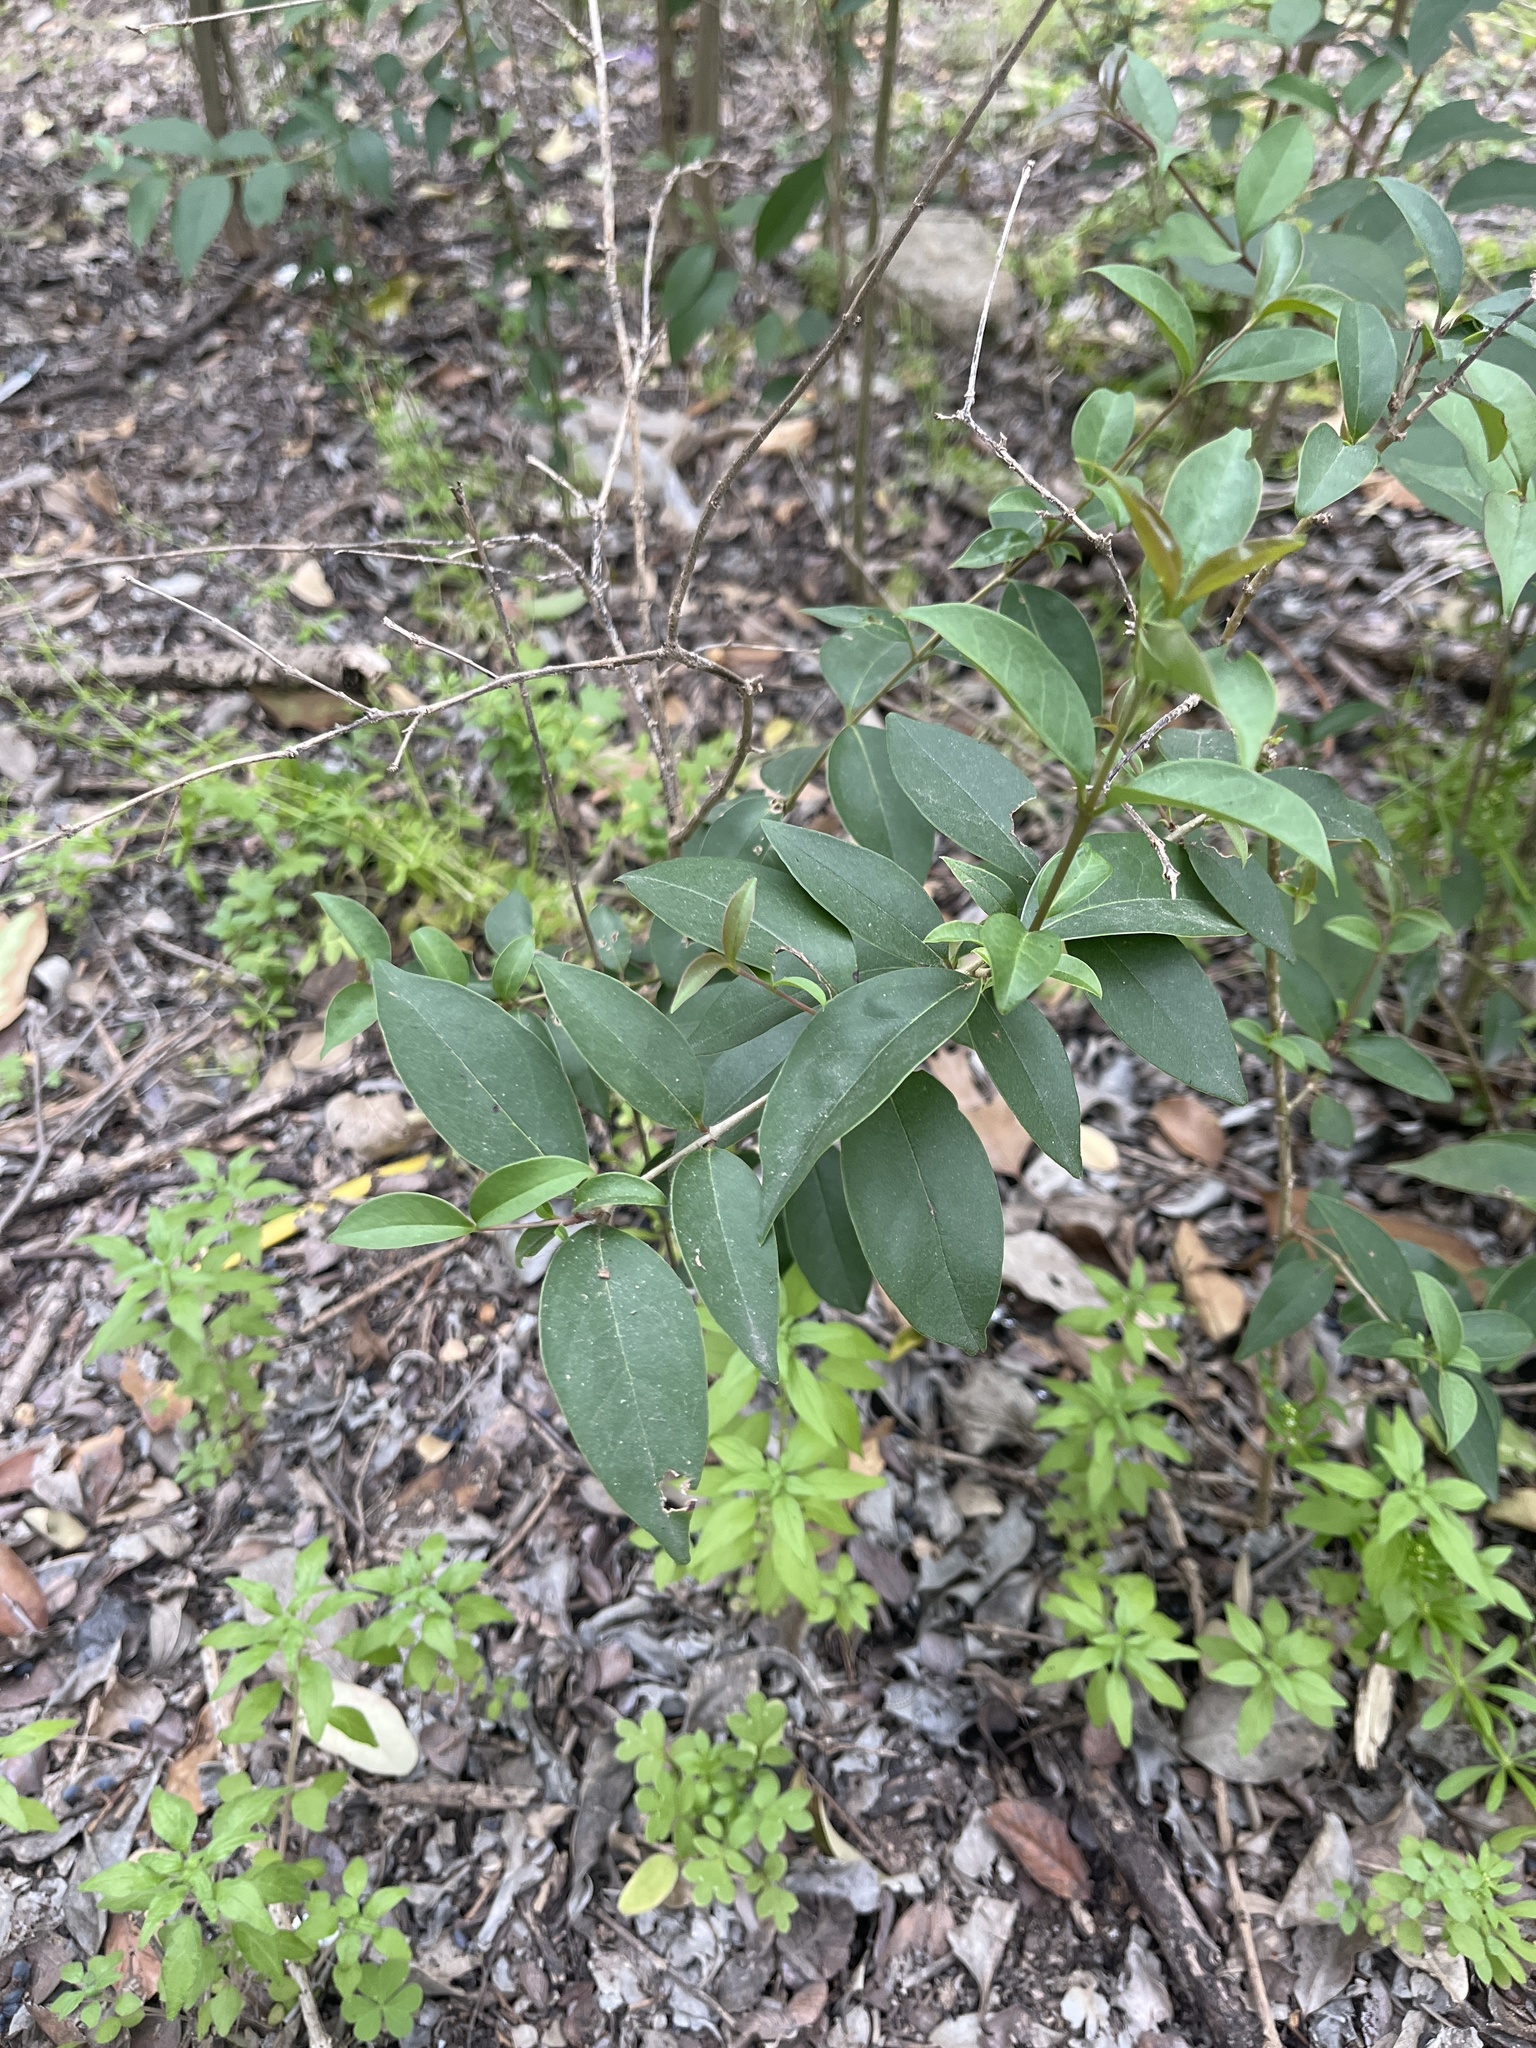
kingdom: Plantae
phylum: Tracheophyta
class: Magnoliopsida
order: Lamiales
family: Oleaceae
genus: Ligustrum
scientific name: Ligustrum lucidum
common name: Glossy privet
